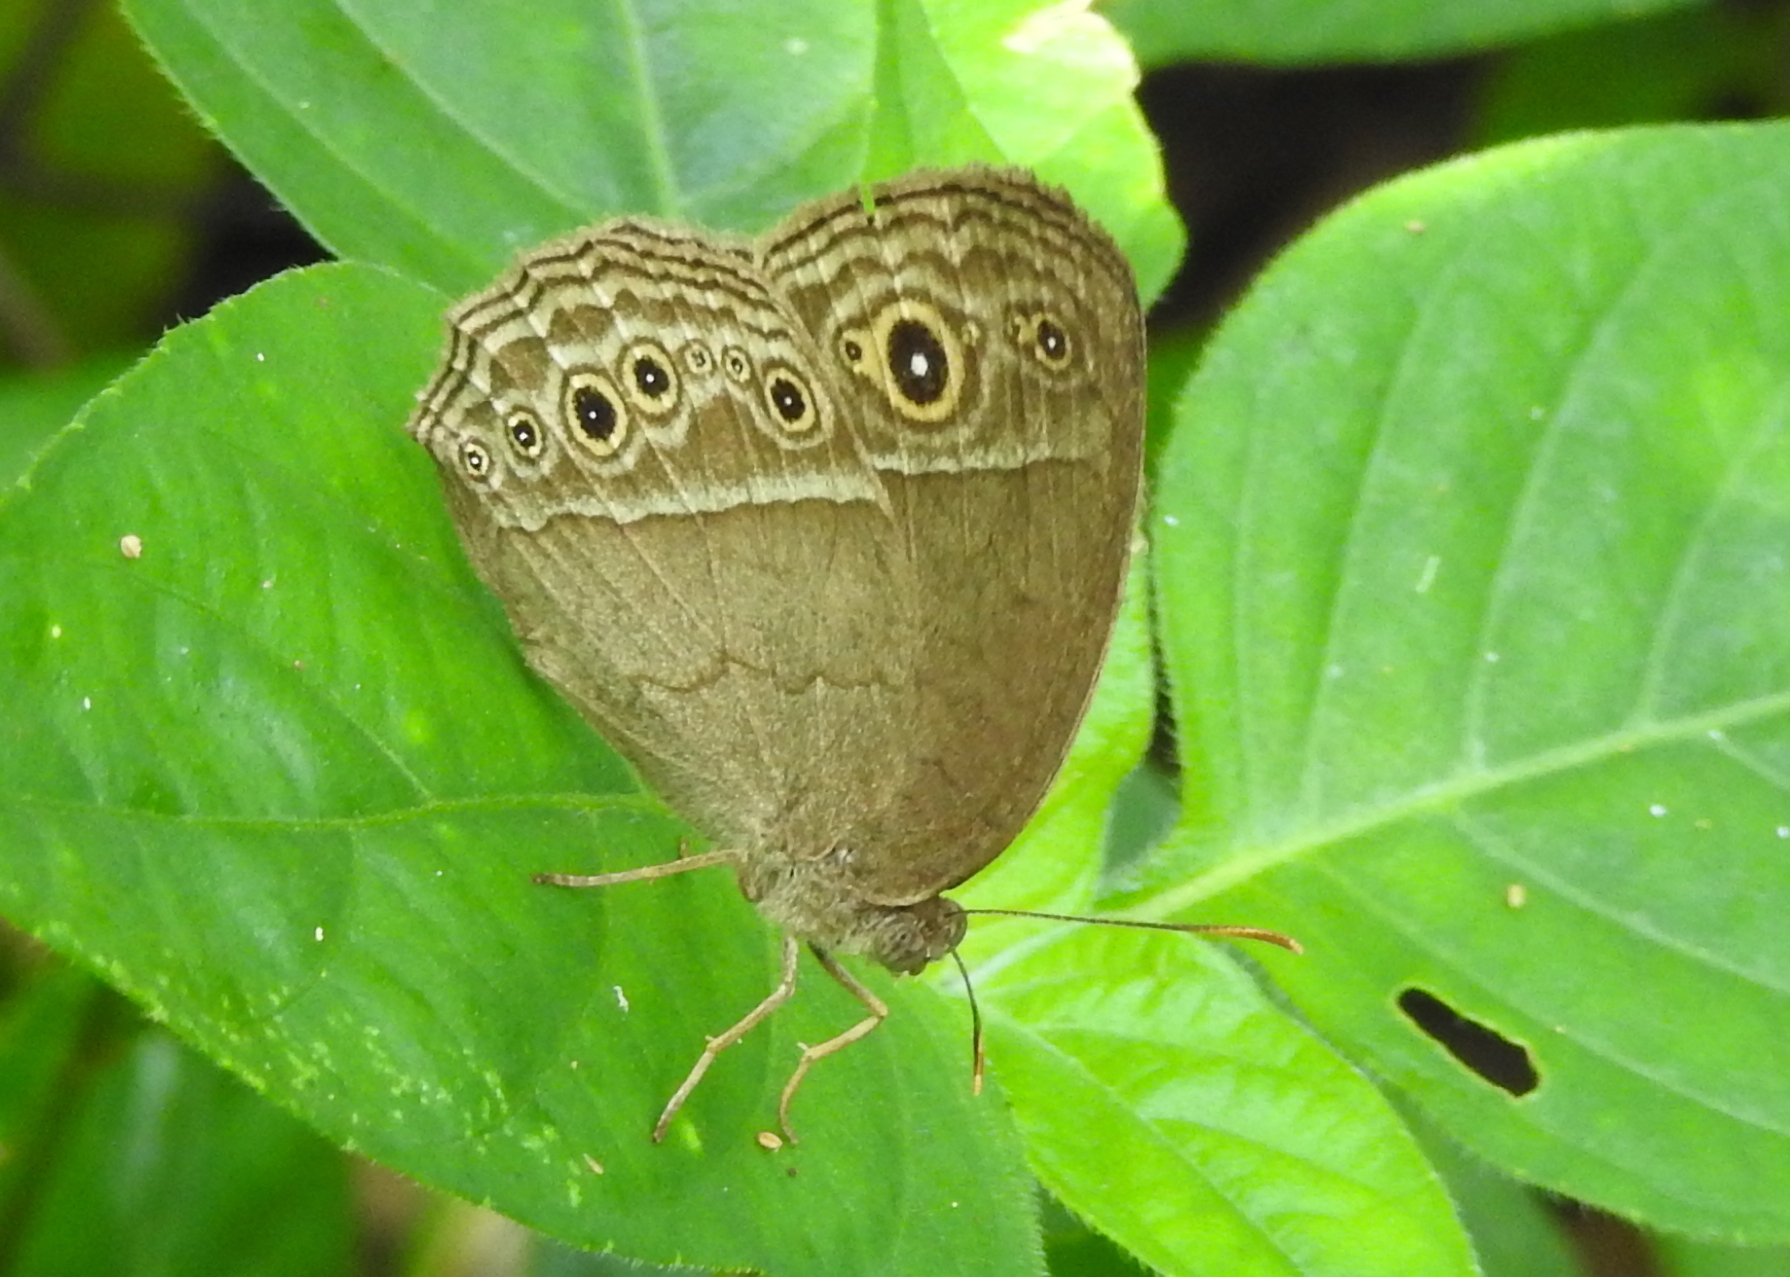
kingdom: Animalia
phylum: Arthropoda
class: Insecta
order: Lepidoptera
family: Nymphalidae
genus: Mycalesis
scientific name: Mycalesis perseoides
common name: Burmese bushbrown
